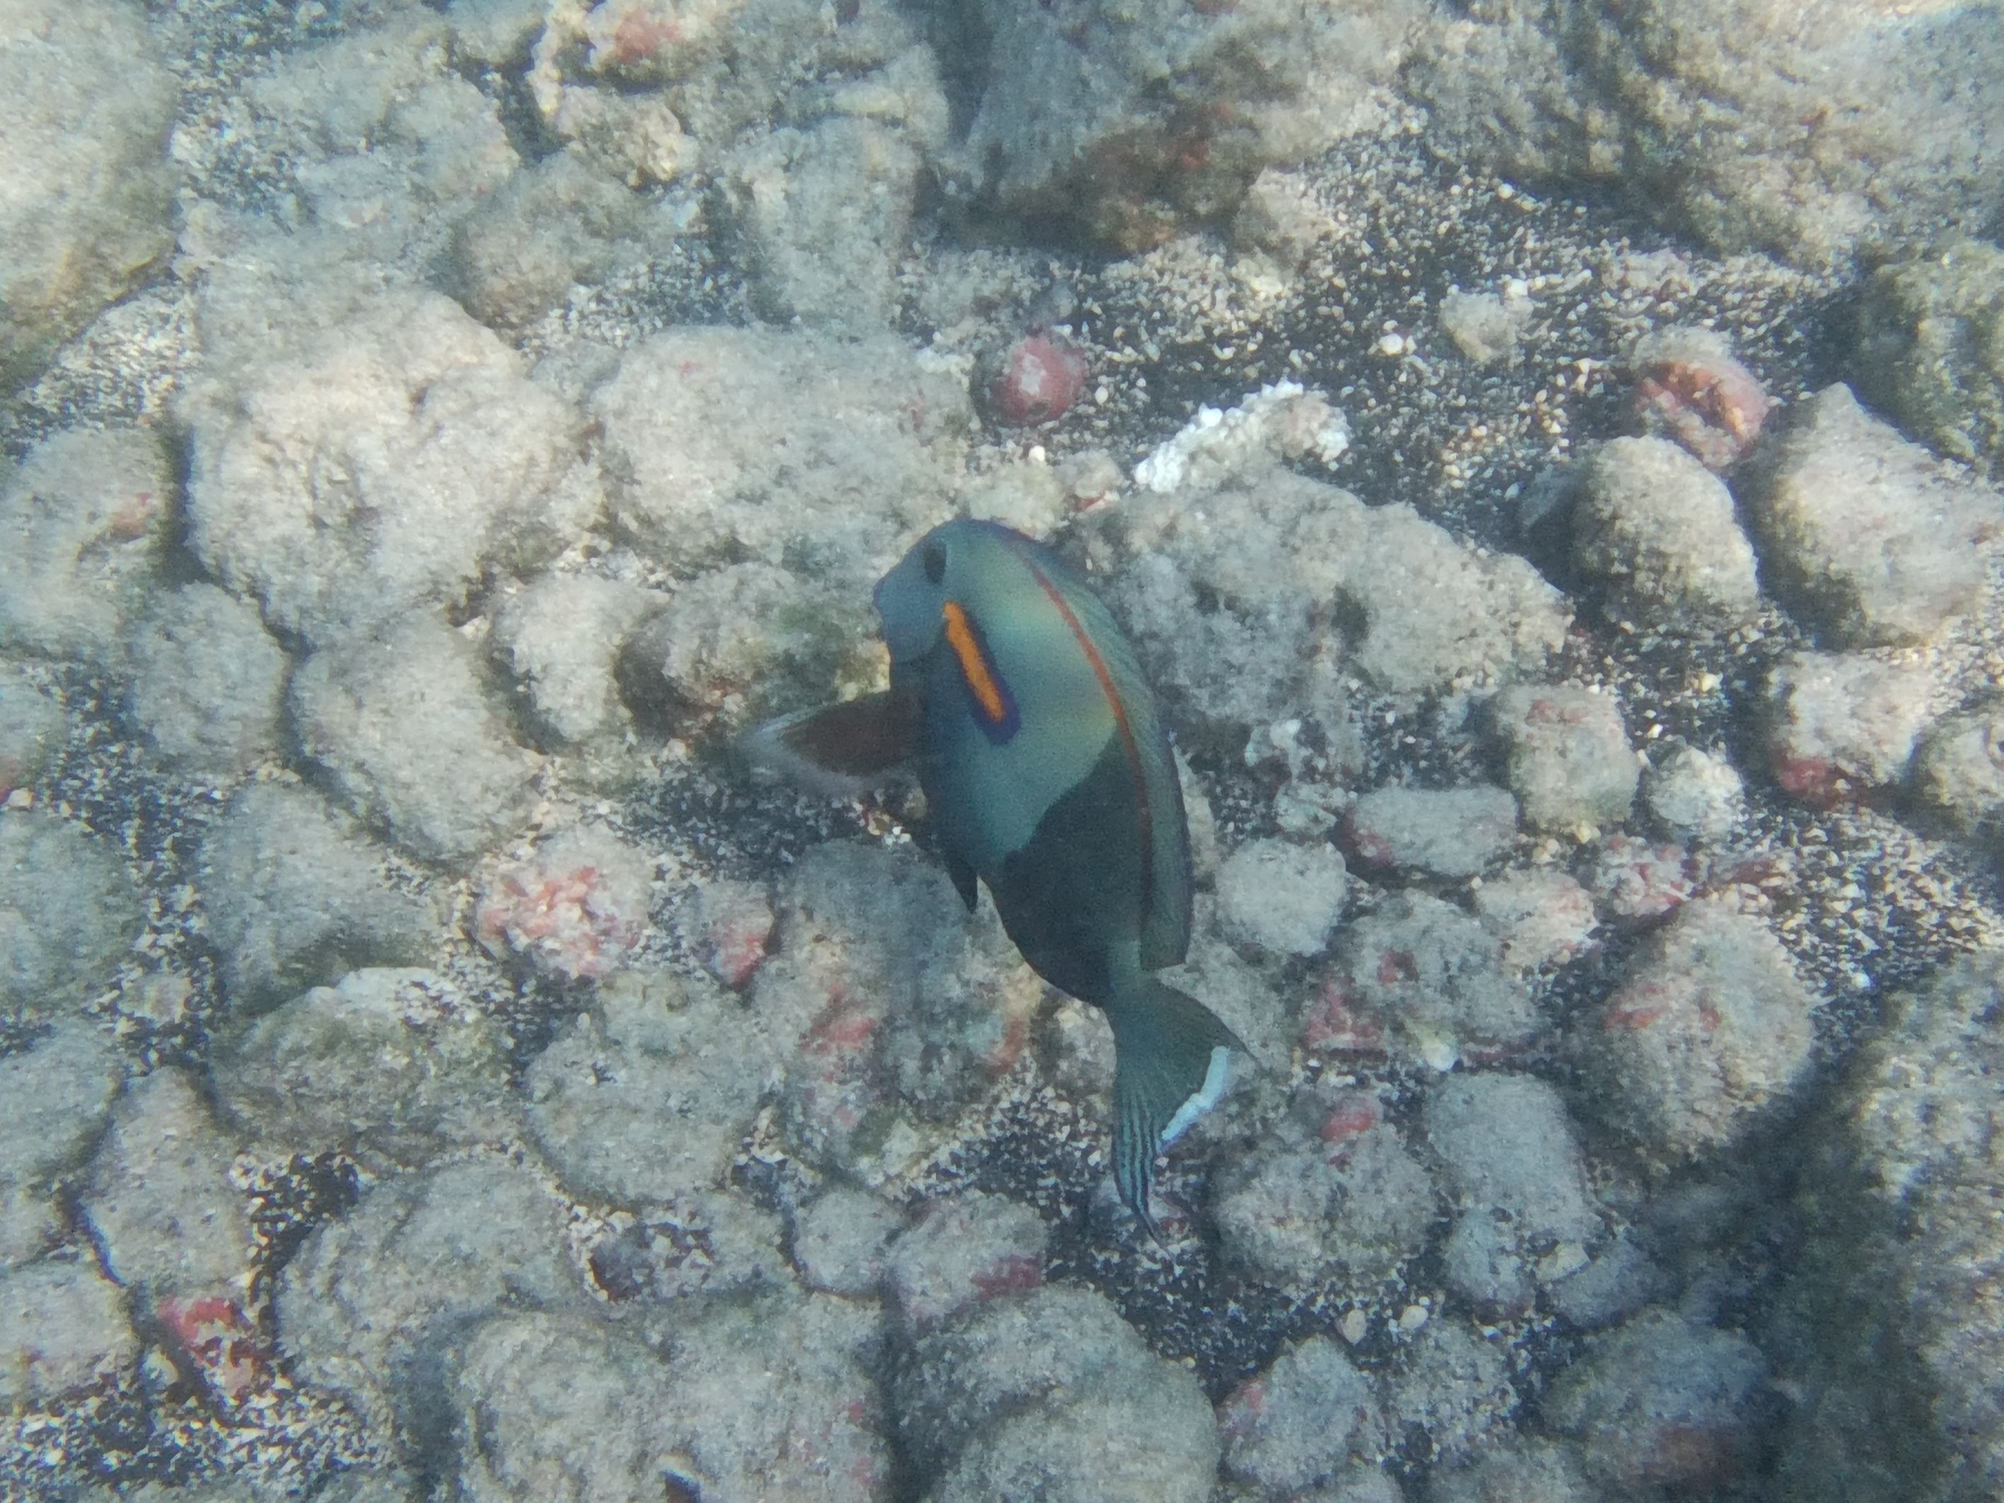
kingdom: Animalia
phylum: Chordata
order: Perciformes
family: Acanthuridae
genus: Acanthurus
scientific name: Acanthurus olivaceus
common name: Gendarme fish
